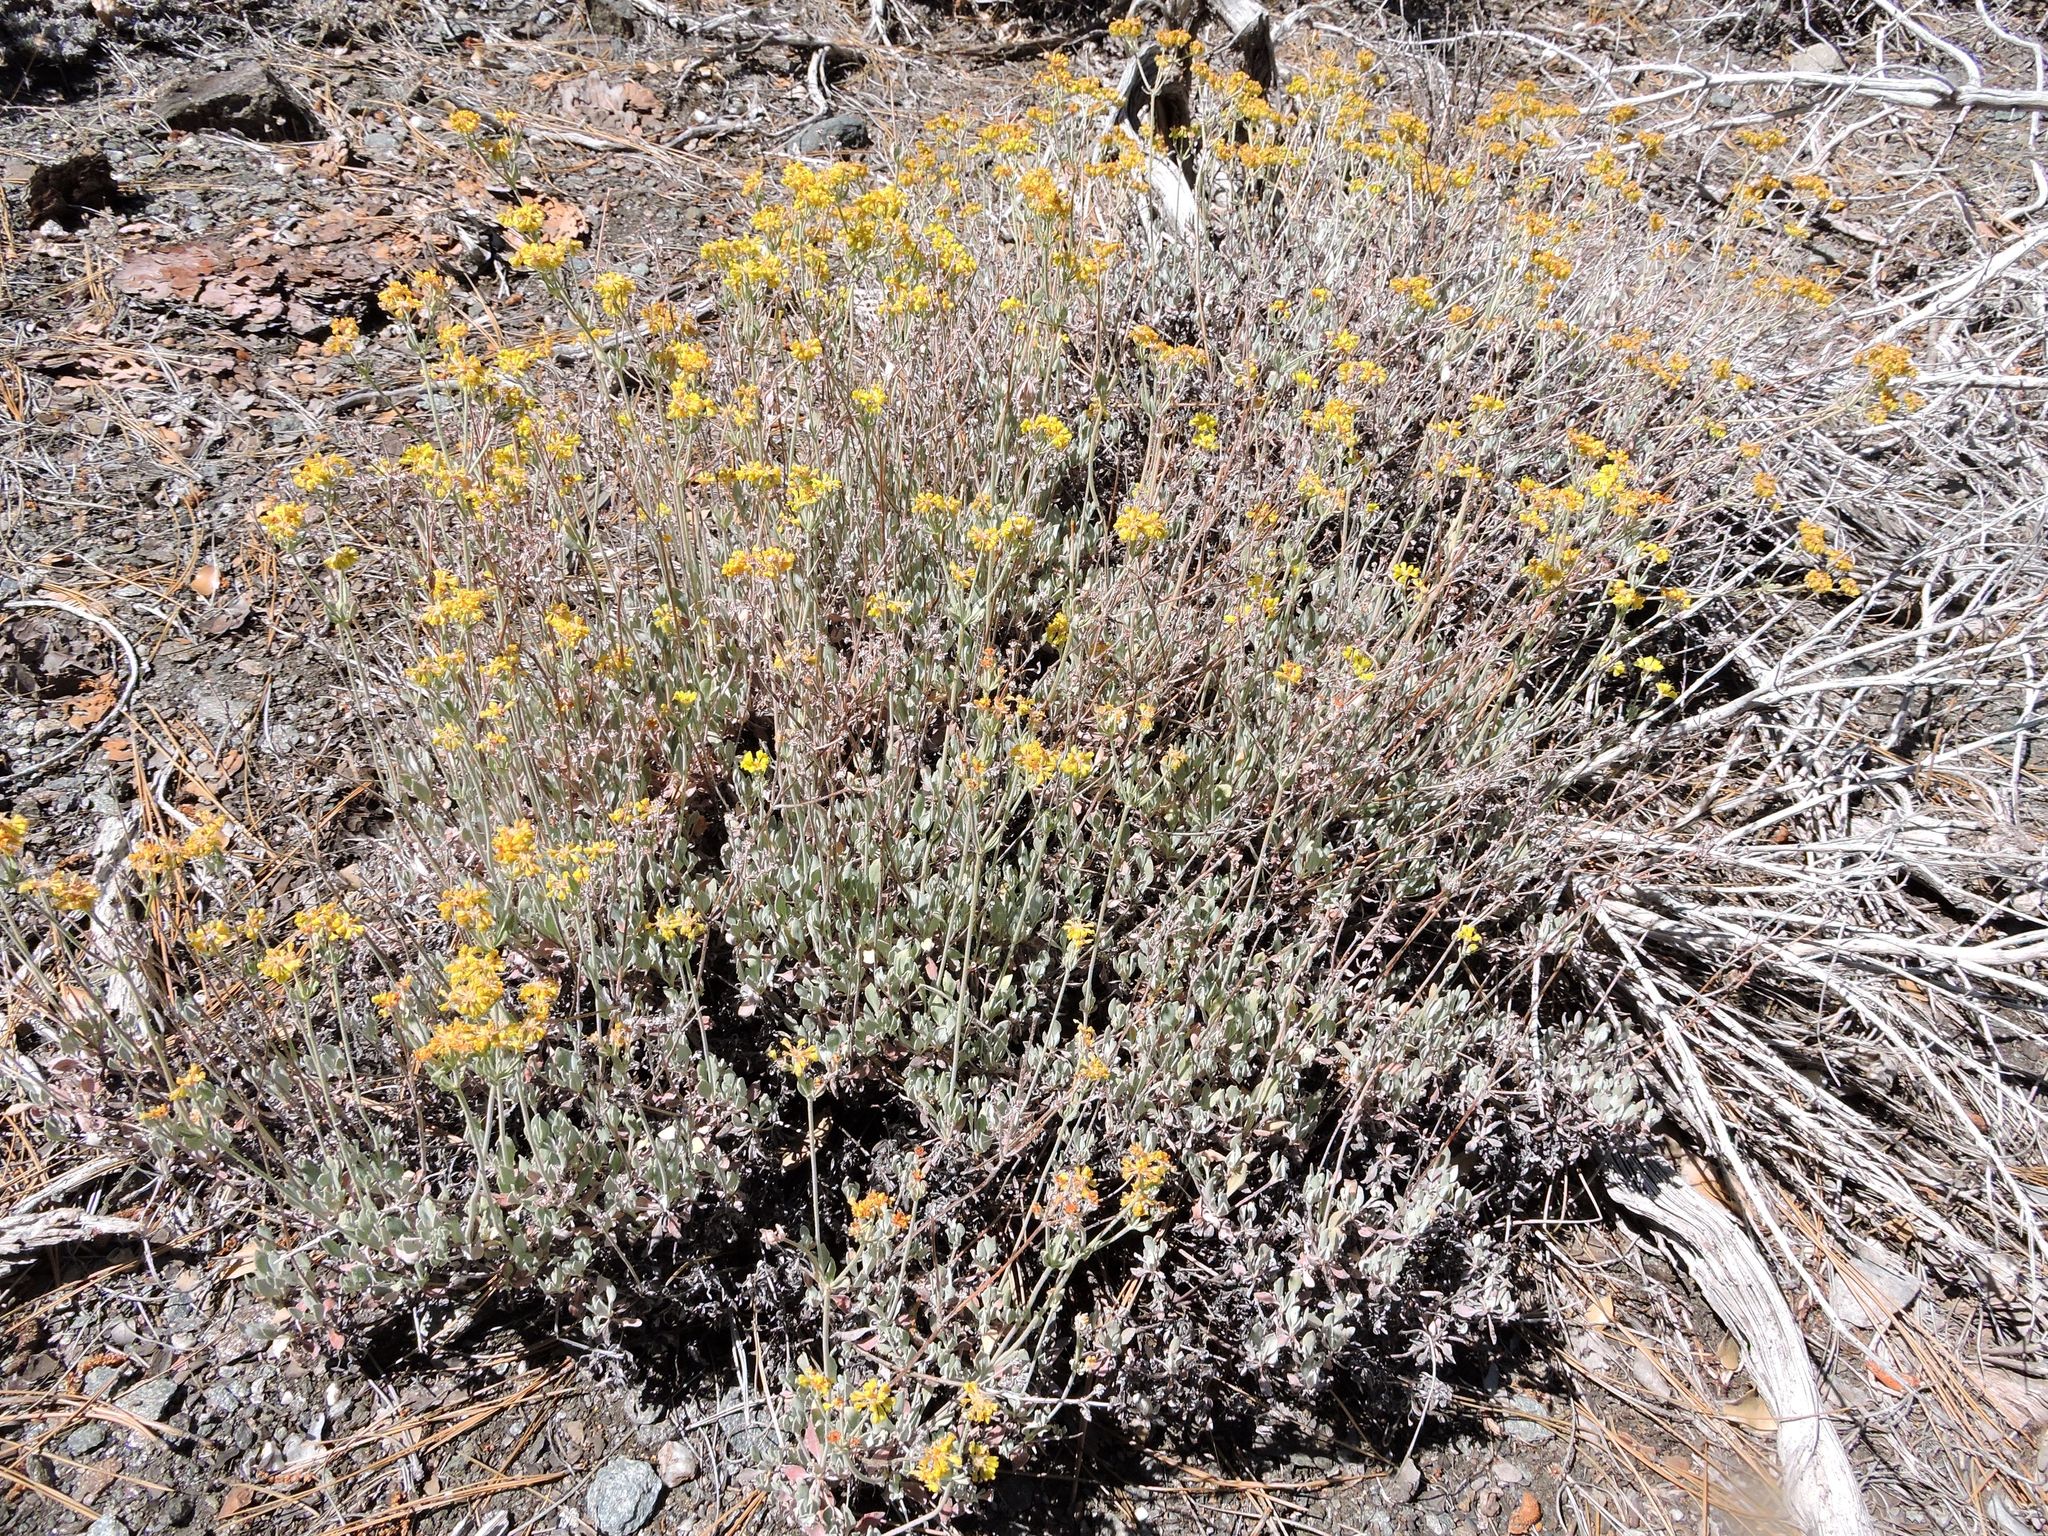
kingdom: Plantae
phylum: Tracheophyta
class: Magnoliopsida
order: Caryophyllales
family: Polygonaceae
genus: Eriogonum
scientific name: Eriogonum umbellatum
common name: Sulfur-buckwheat
